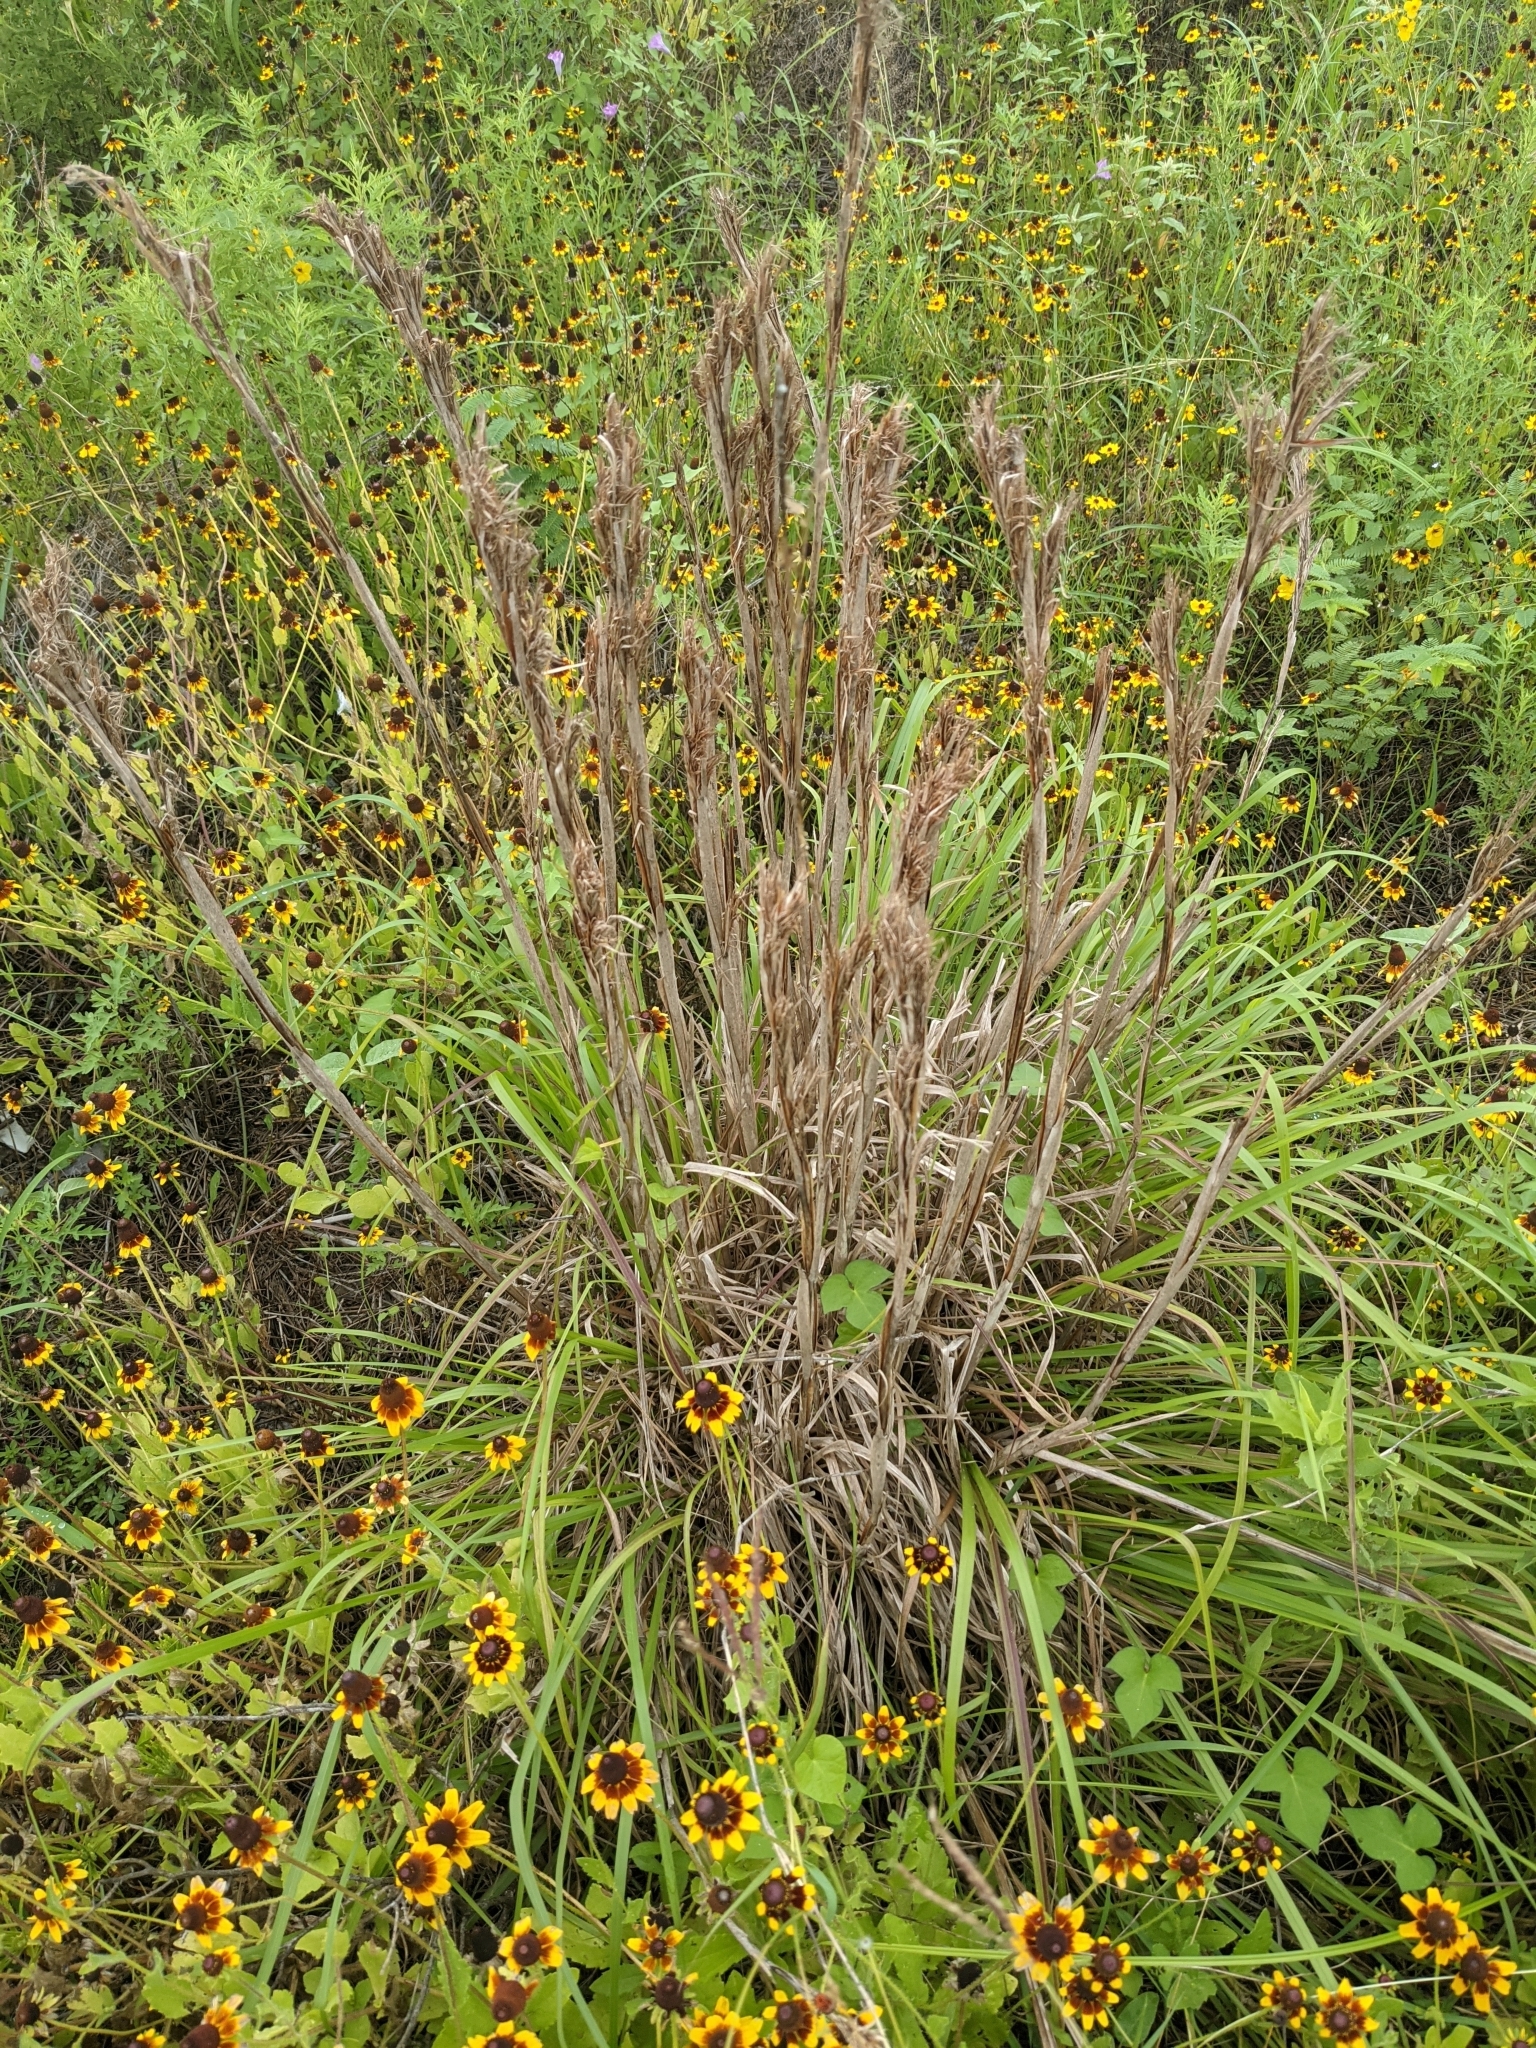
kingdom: Plantae
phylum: Tracheophyta
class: Liliopsida
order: Poales
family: Poaceae
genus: Andropogon
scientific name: Andropogon tenuispatheus
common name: Bushy bluestem
